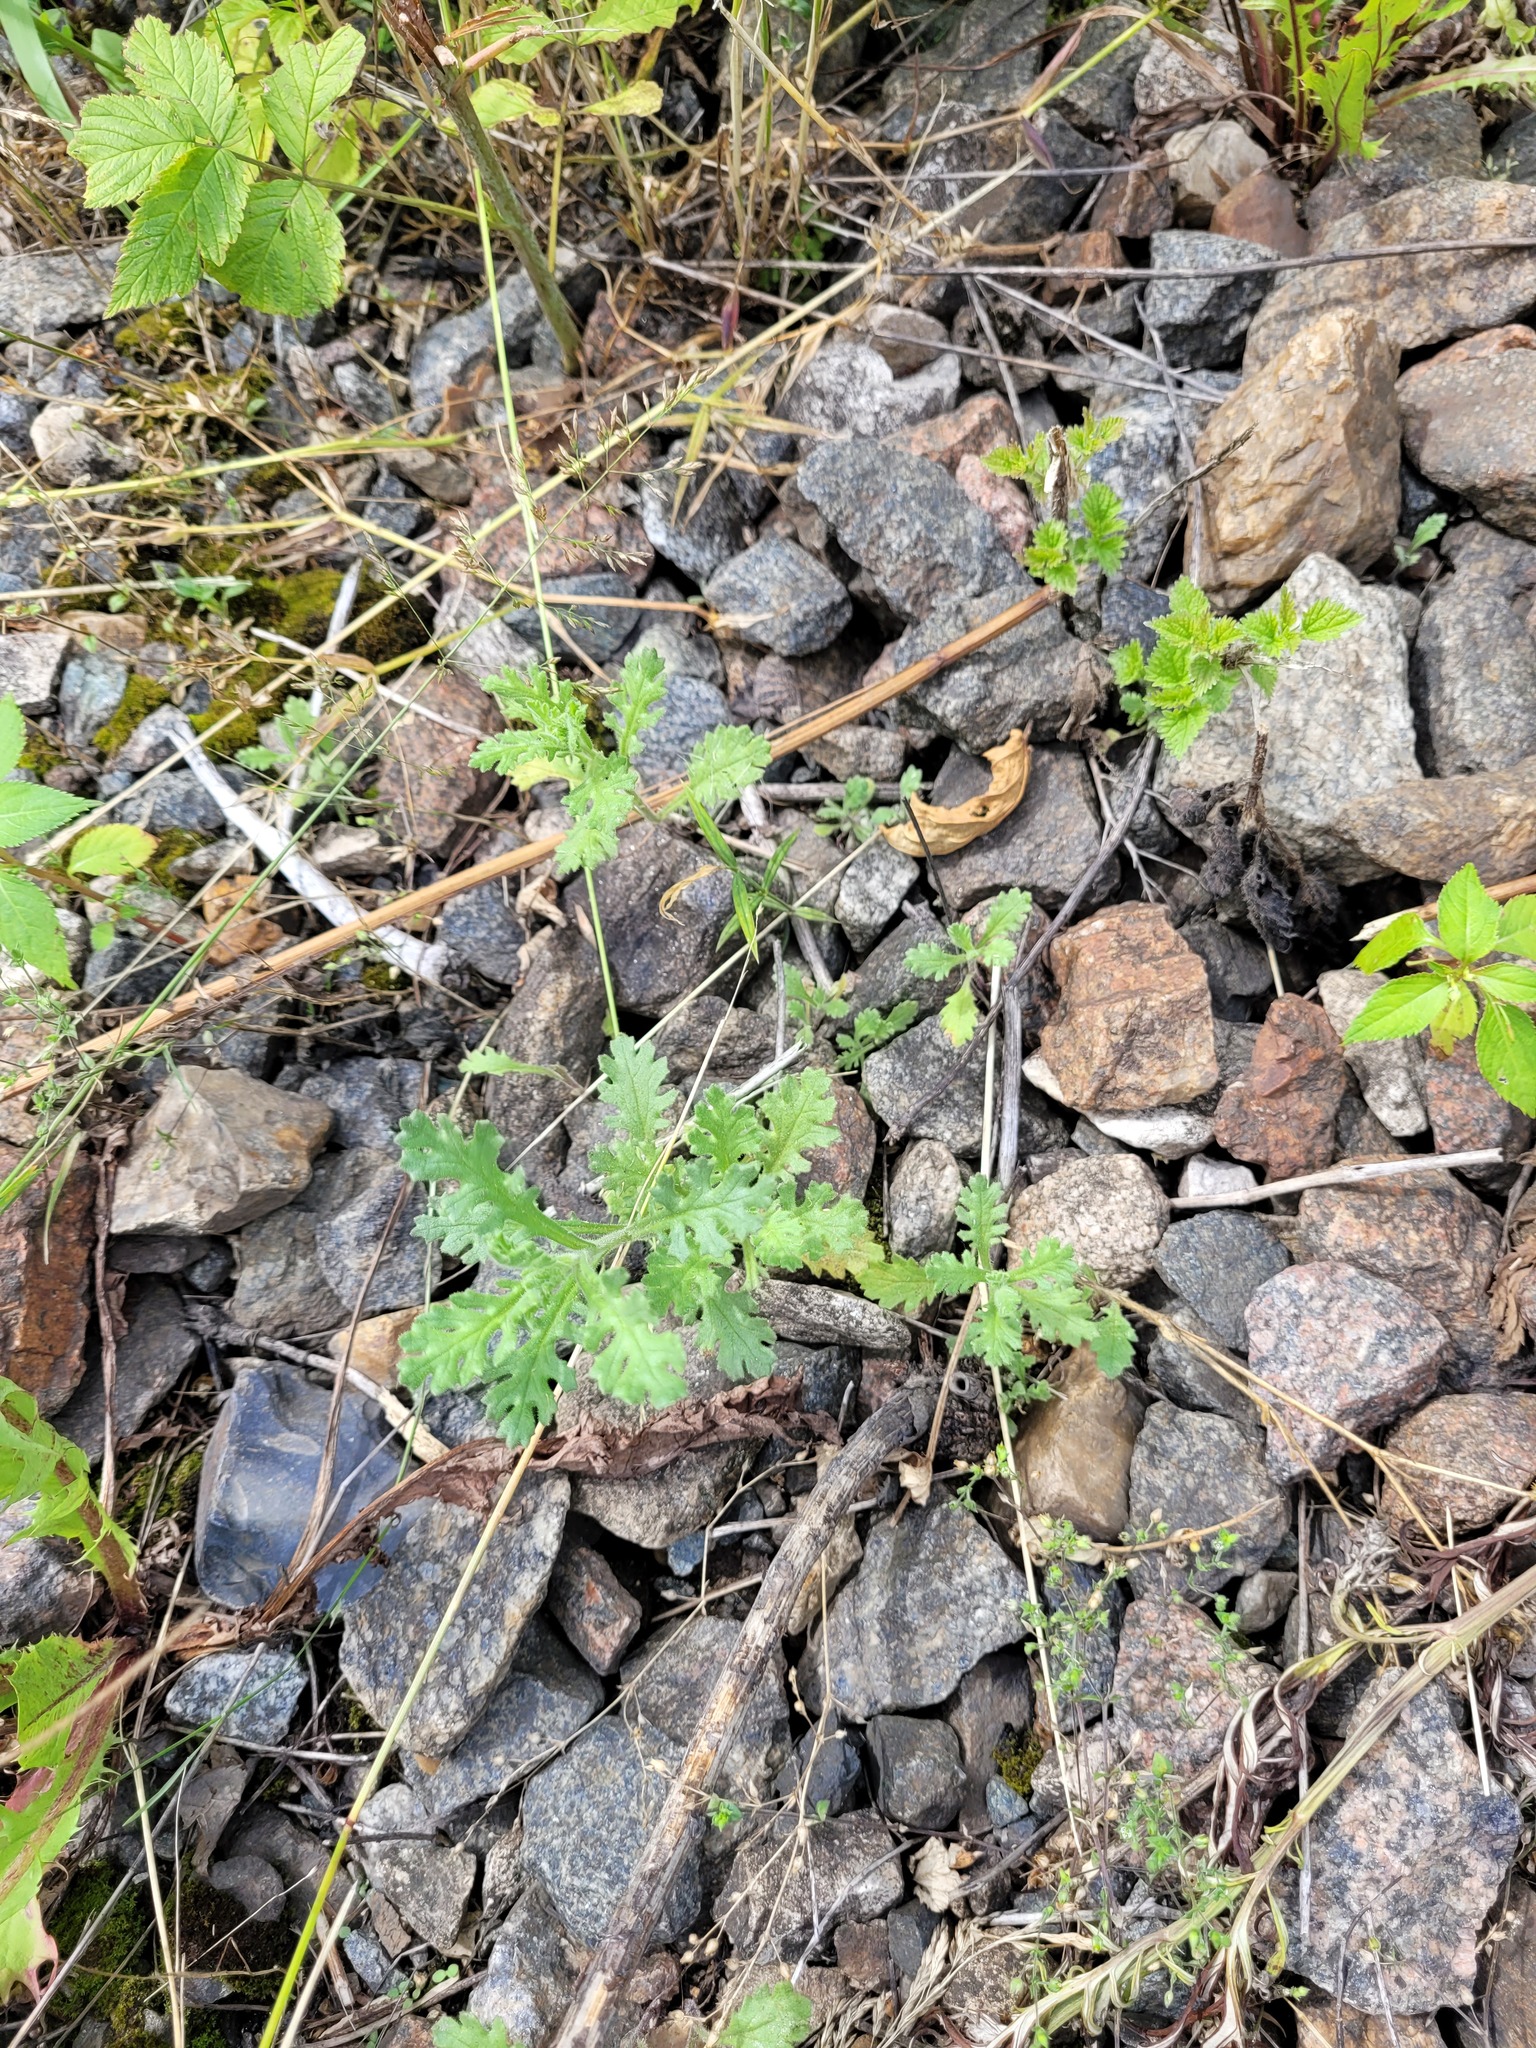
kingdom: Plantae
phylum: Tracheophyta
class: Magnoliopsida
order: Asterales
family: Asteraceae
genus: Senecio
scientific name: Senecio viscosus
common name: Sticky groundsel
